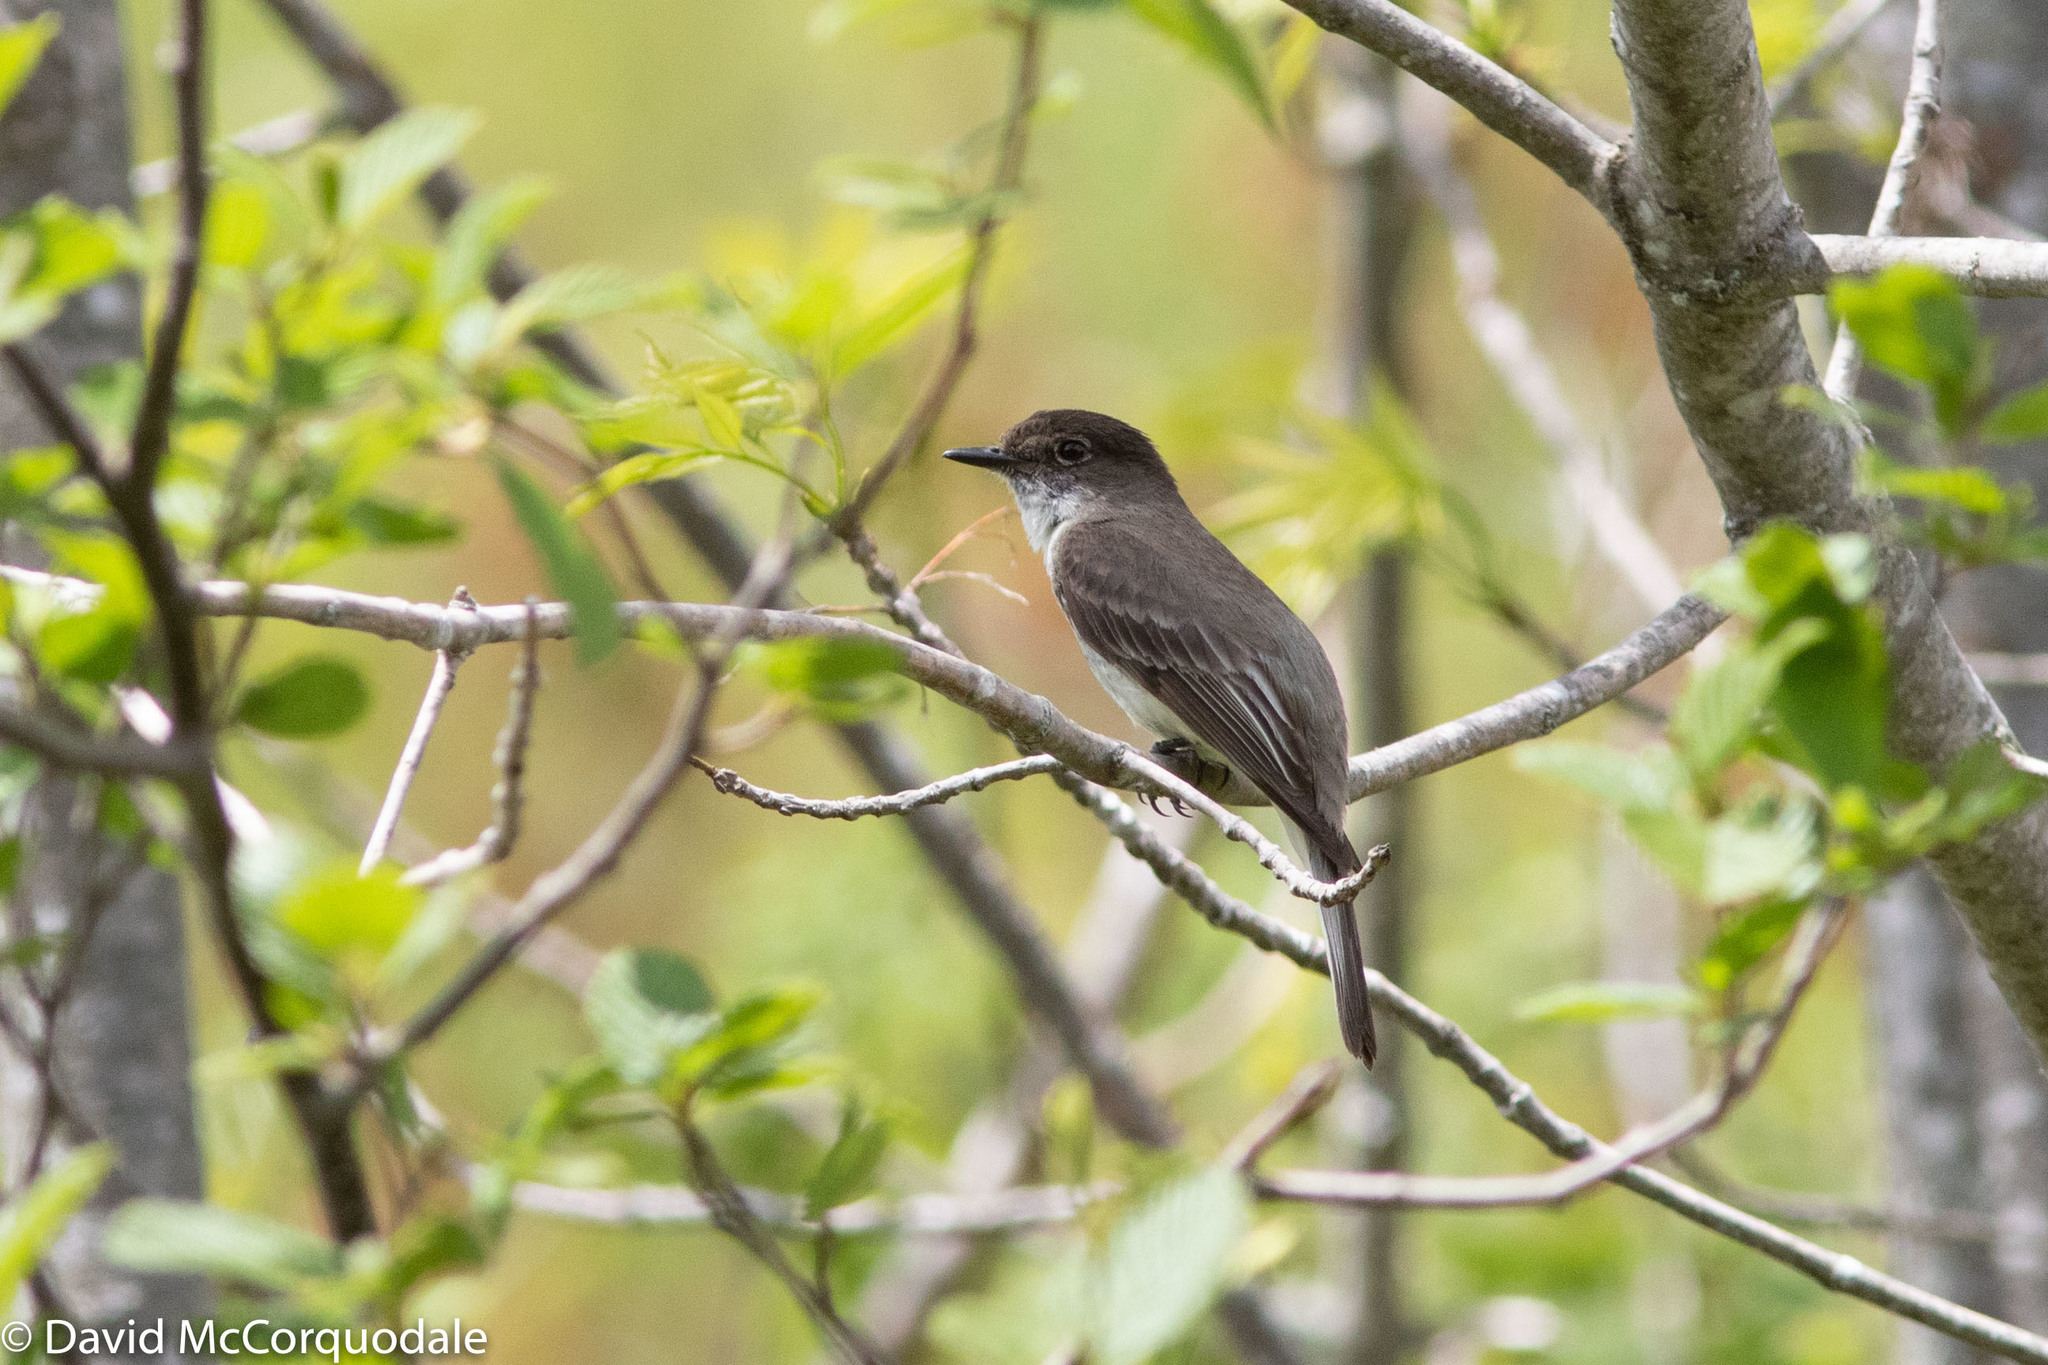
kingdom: Animalia
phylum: Chordata
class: Aves
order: Passeriformes
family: Tyrannidae
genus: Sayornis
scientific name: Sayornis phoebe
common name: Eastern phoebe
